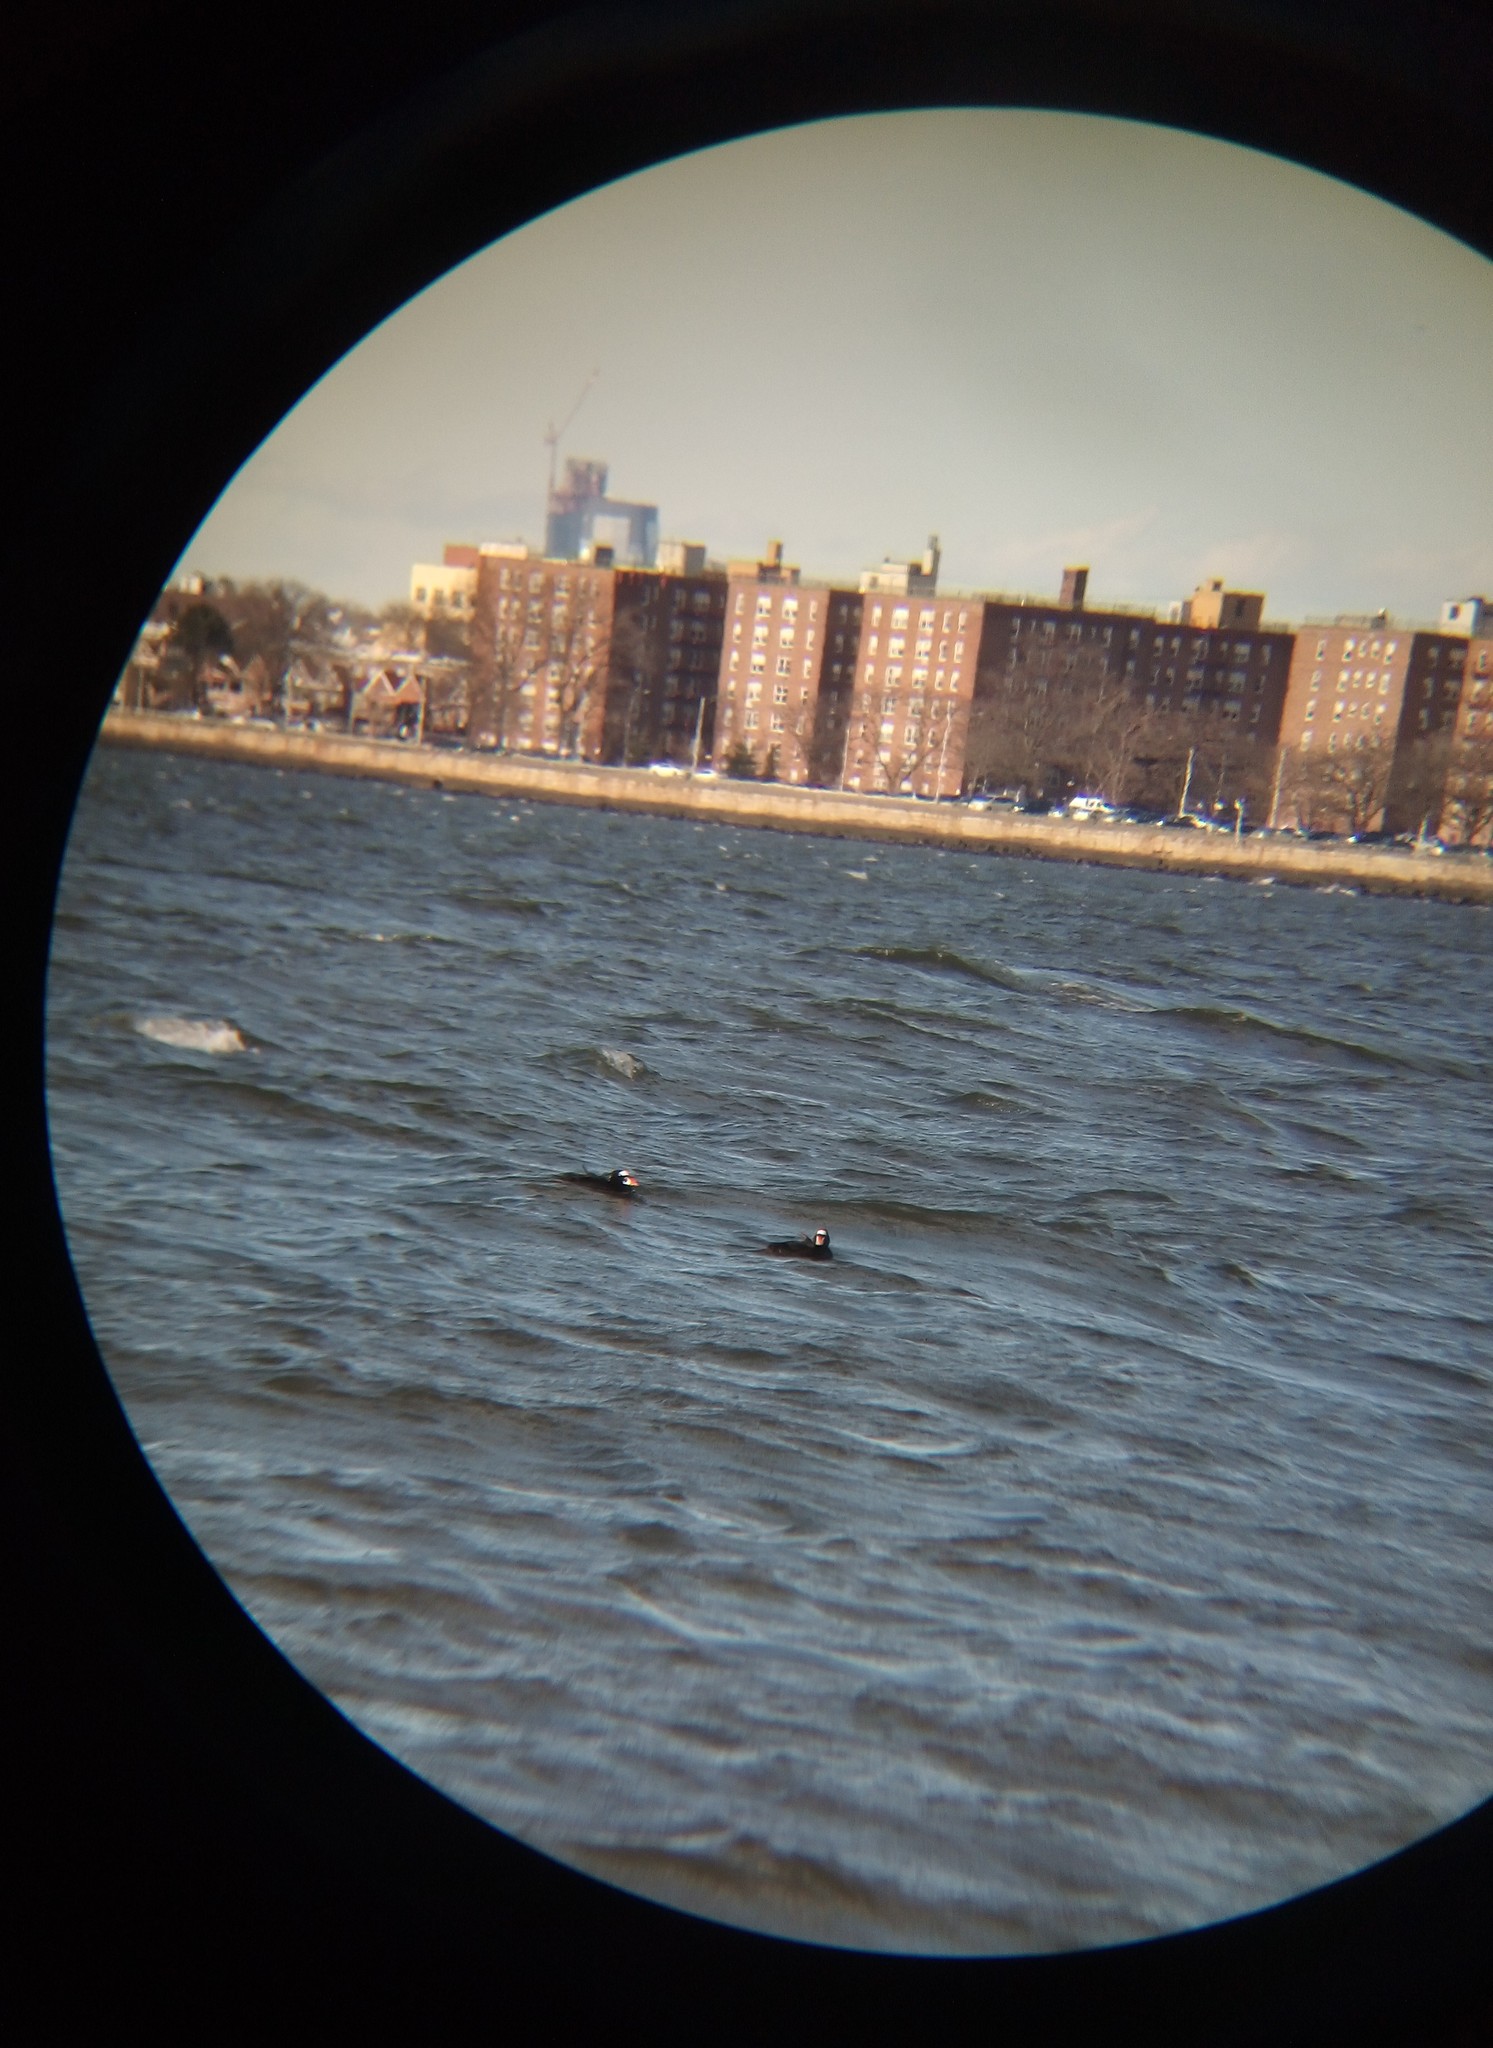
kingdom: Animalia
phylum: Chordata
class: Aves
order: Anseriformes
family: Anatidae
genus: Melanitta
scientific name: Melanitta perspicillata
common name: Surf scoter
